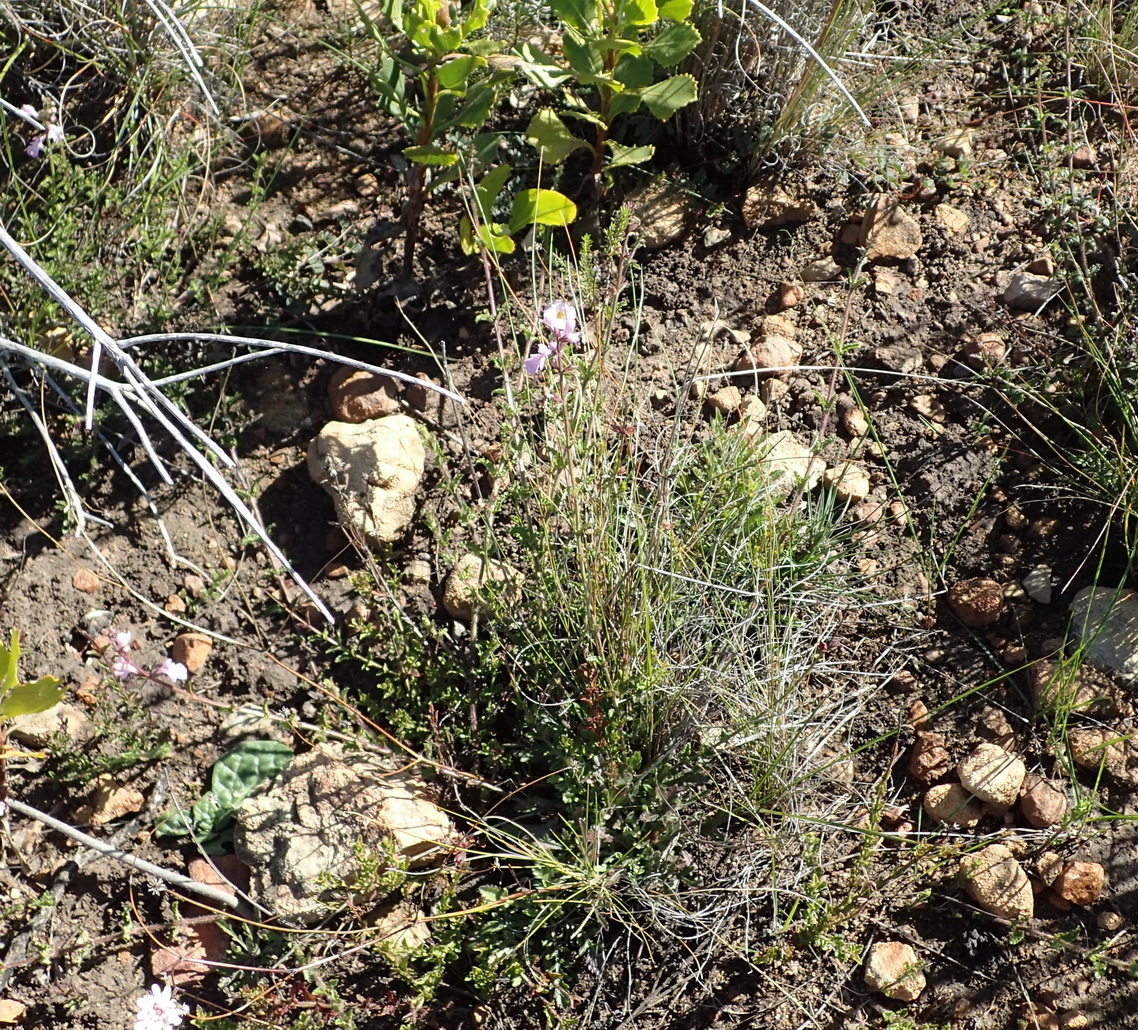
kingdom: Plantae
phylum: Tracheophyta
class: Magnoliopsida
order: Lamiales
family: Lamiaceae
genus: Stachys
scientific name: Stachys sublobata
